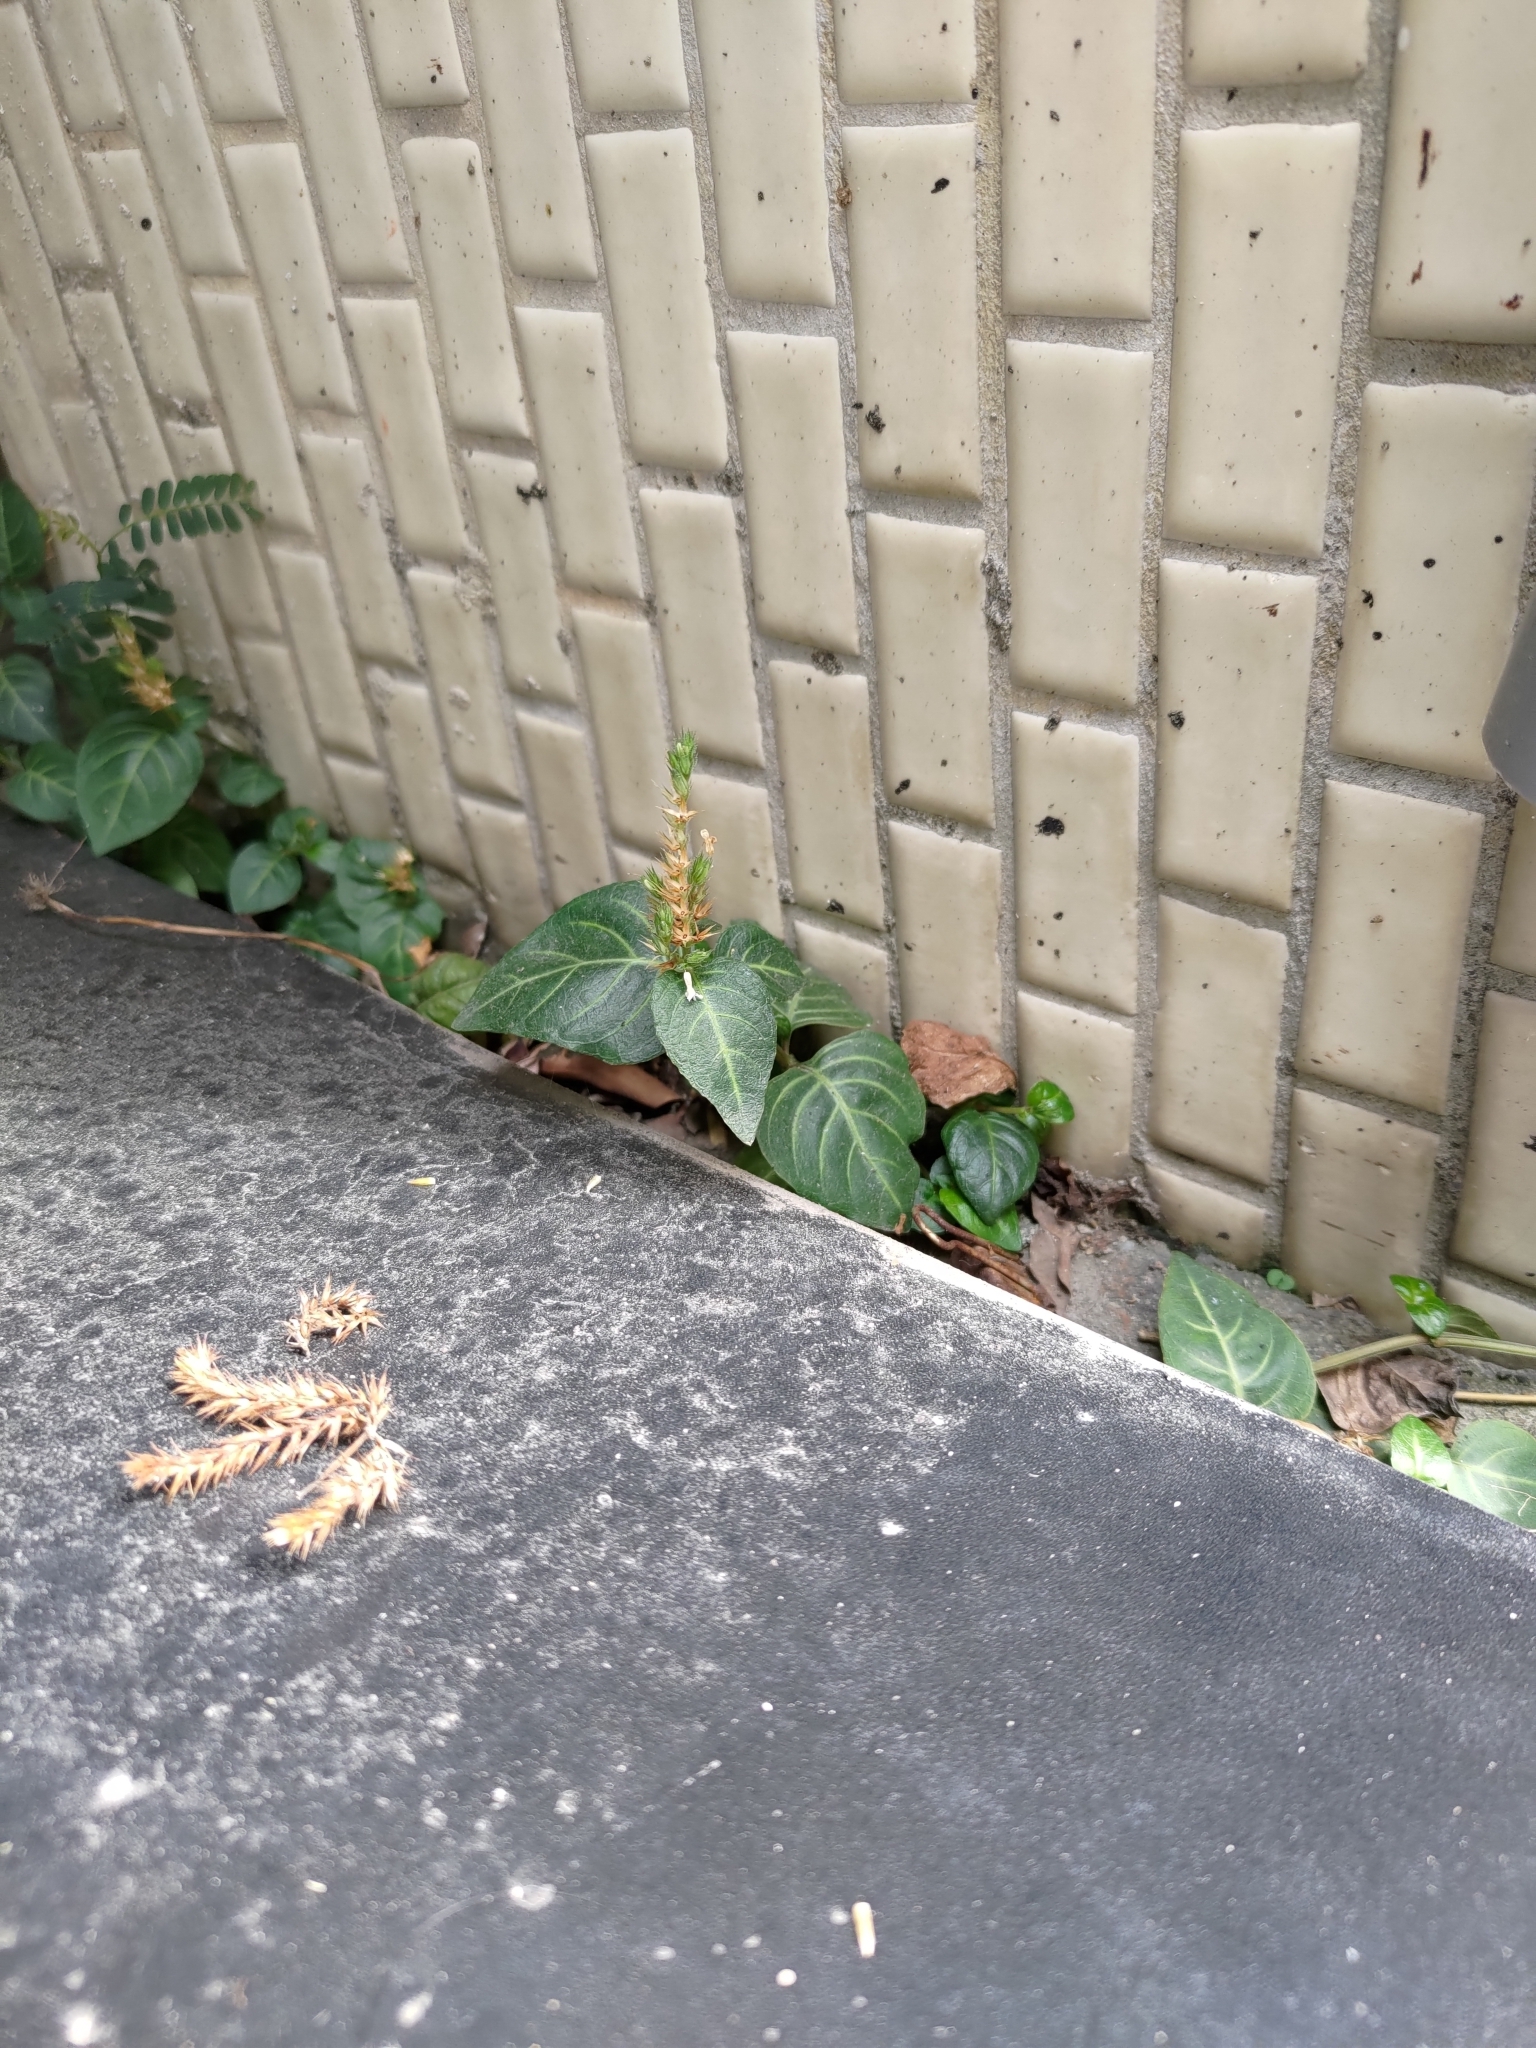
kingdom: Plantae
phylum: Tracheophyta
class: Magnoliopsida
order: Lamiales
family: Acanthaceae
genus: Lepidagathis
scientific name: Lepidagathis inaequalis
